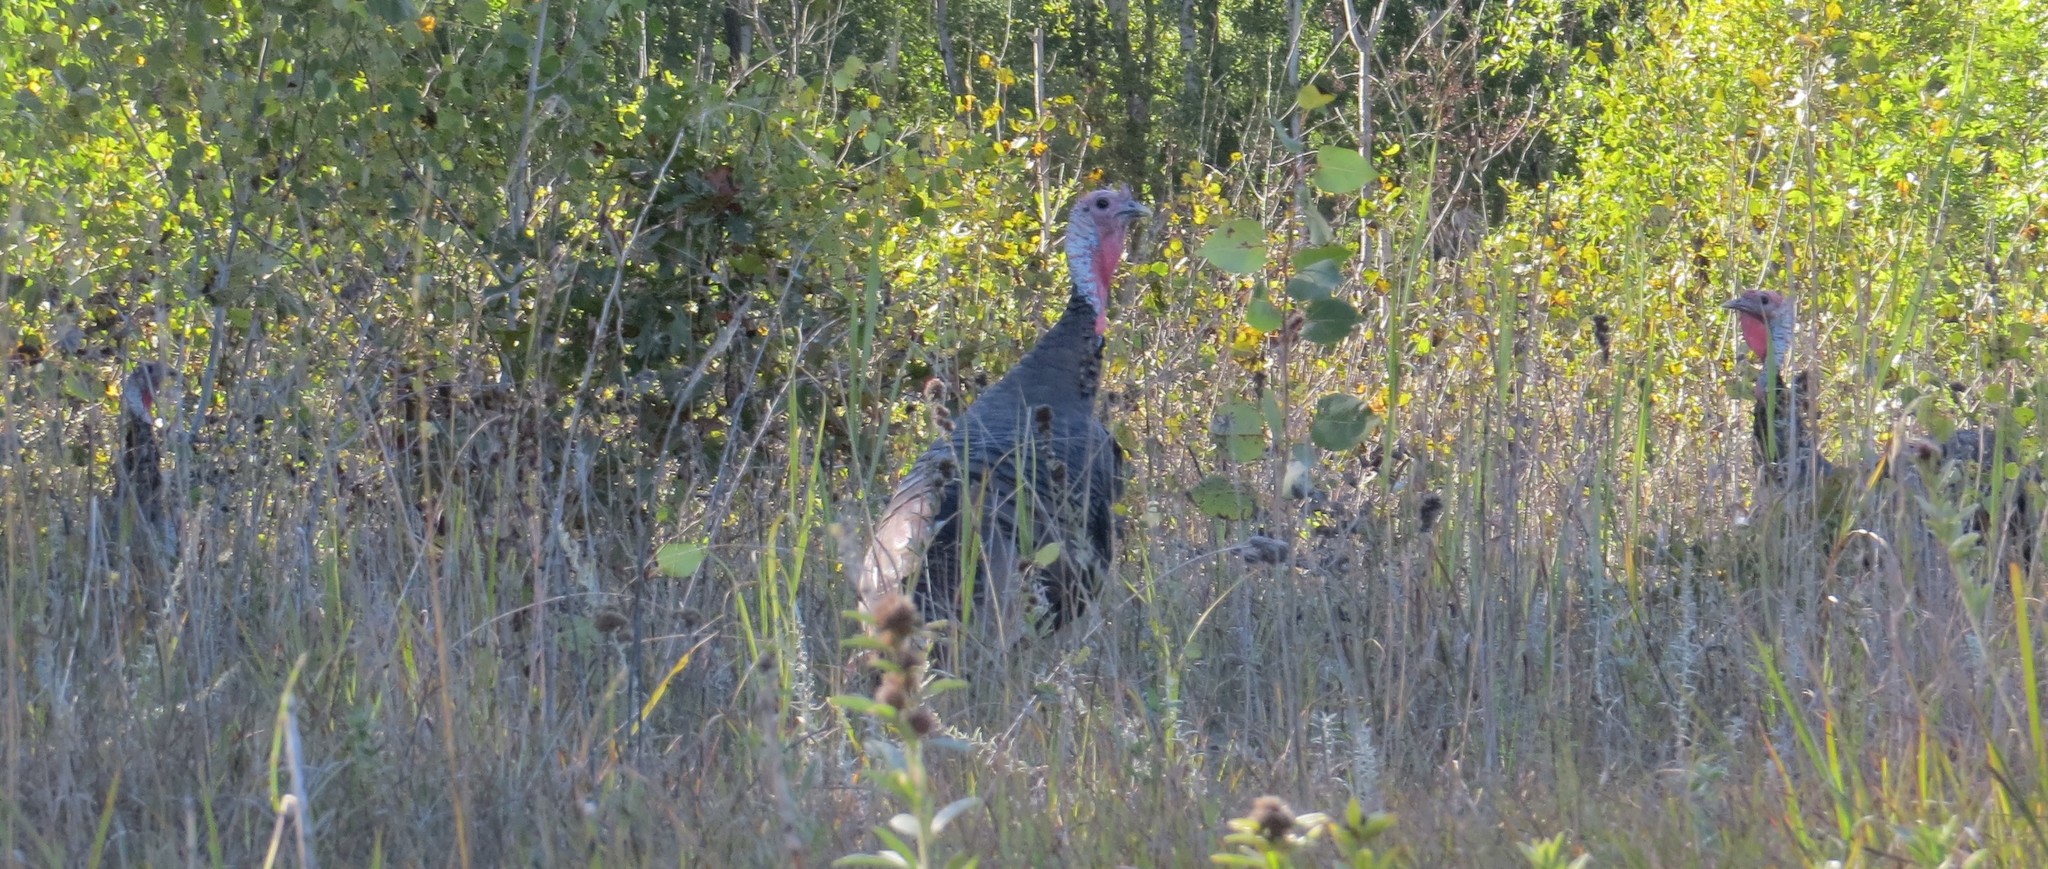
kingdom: Animalia
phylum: Chordata
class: Aves
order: Galliformes
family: Phasianidae
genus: Meleagris
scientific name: Meleagris gallopavo
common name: Wild turkey
